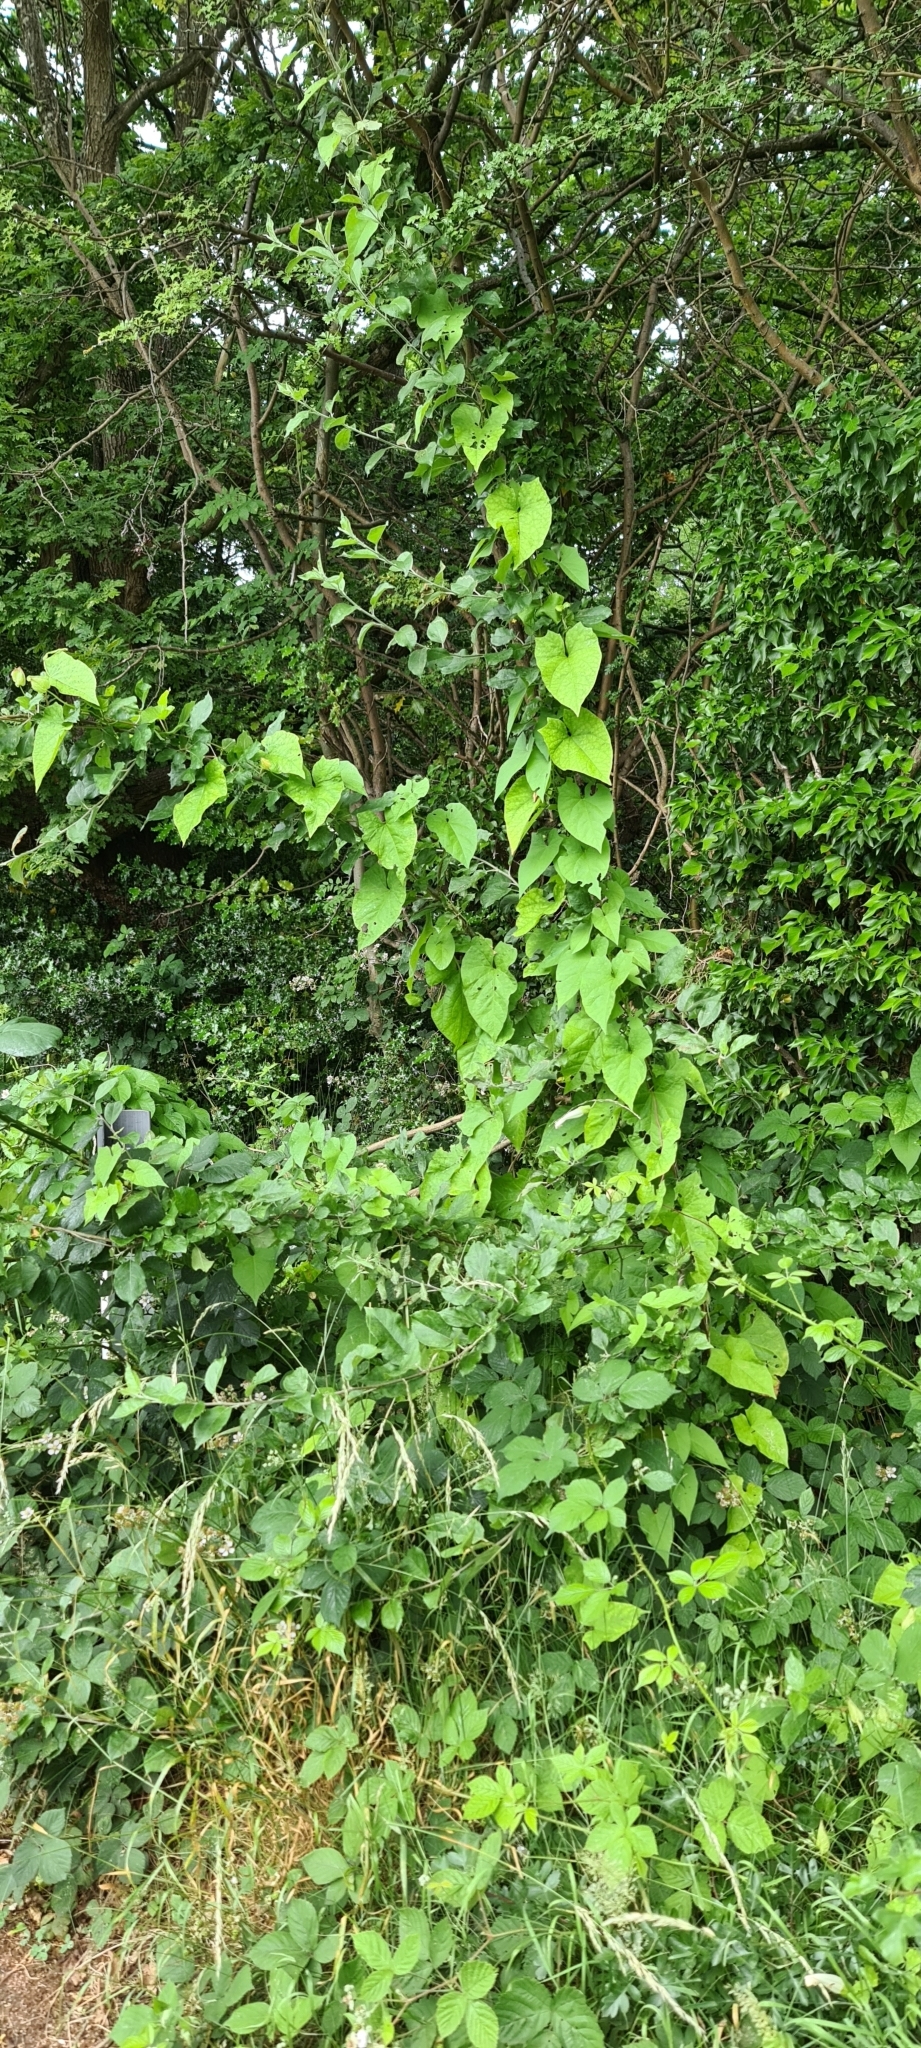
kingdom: Plantae
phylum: Tracheophyta
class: Magnoliopsida
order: Solanales
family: Convolvulaceae
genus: Calystegia
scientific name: Calystegia silvatica
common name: Large bindweed
